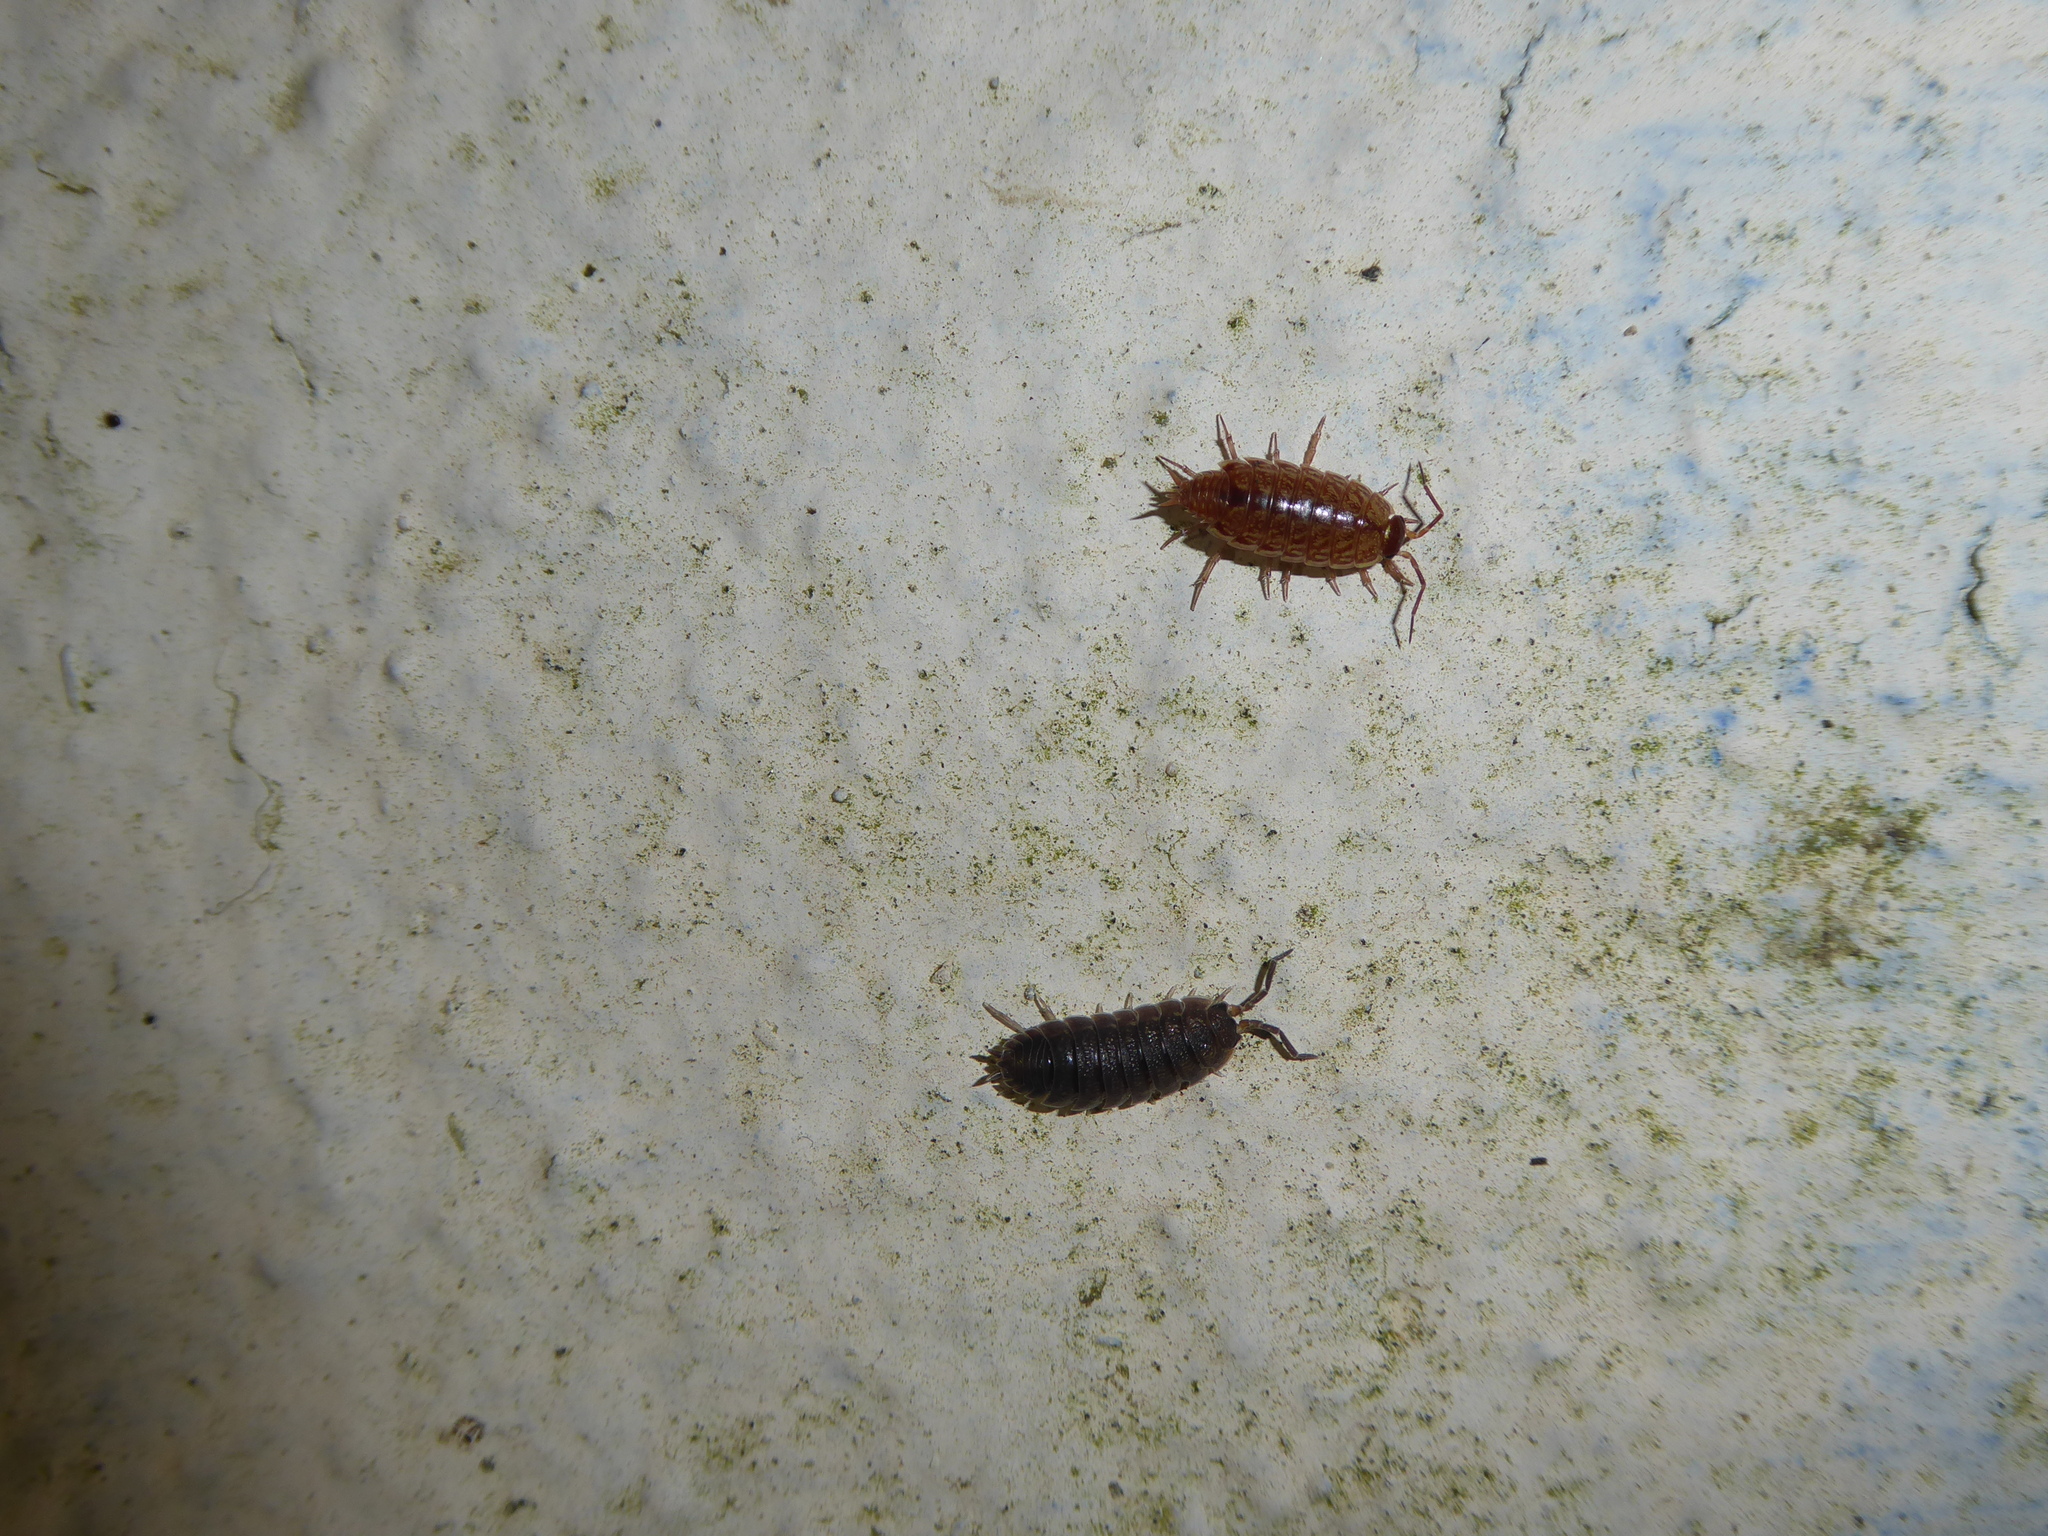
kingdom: Animalia
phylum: Arthropoda
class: Malacostraca
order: Isopoda
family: Porcellionidae
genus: Porcellio
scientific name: Porcellio scaber
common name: Common rough woodlouse
